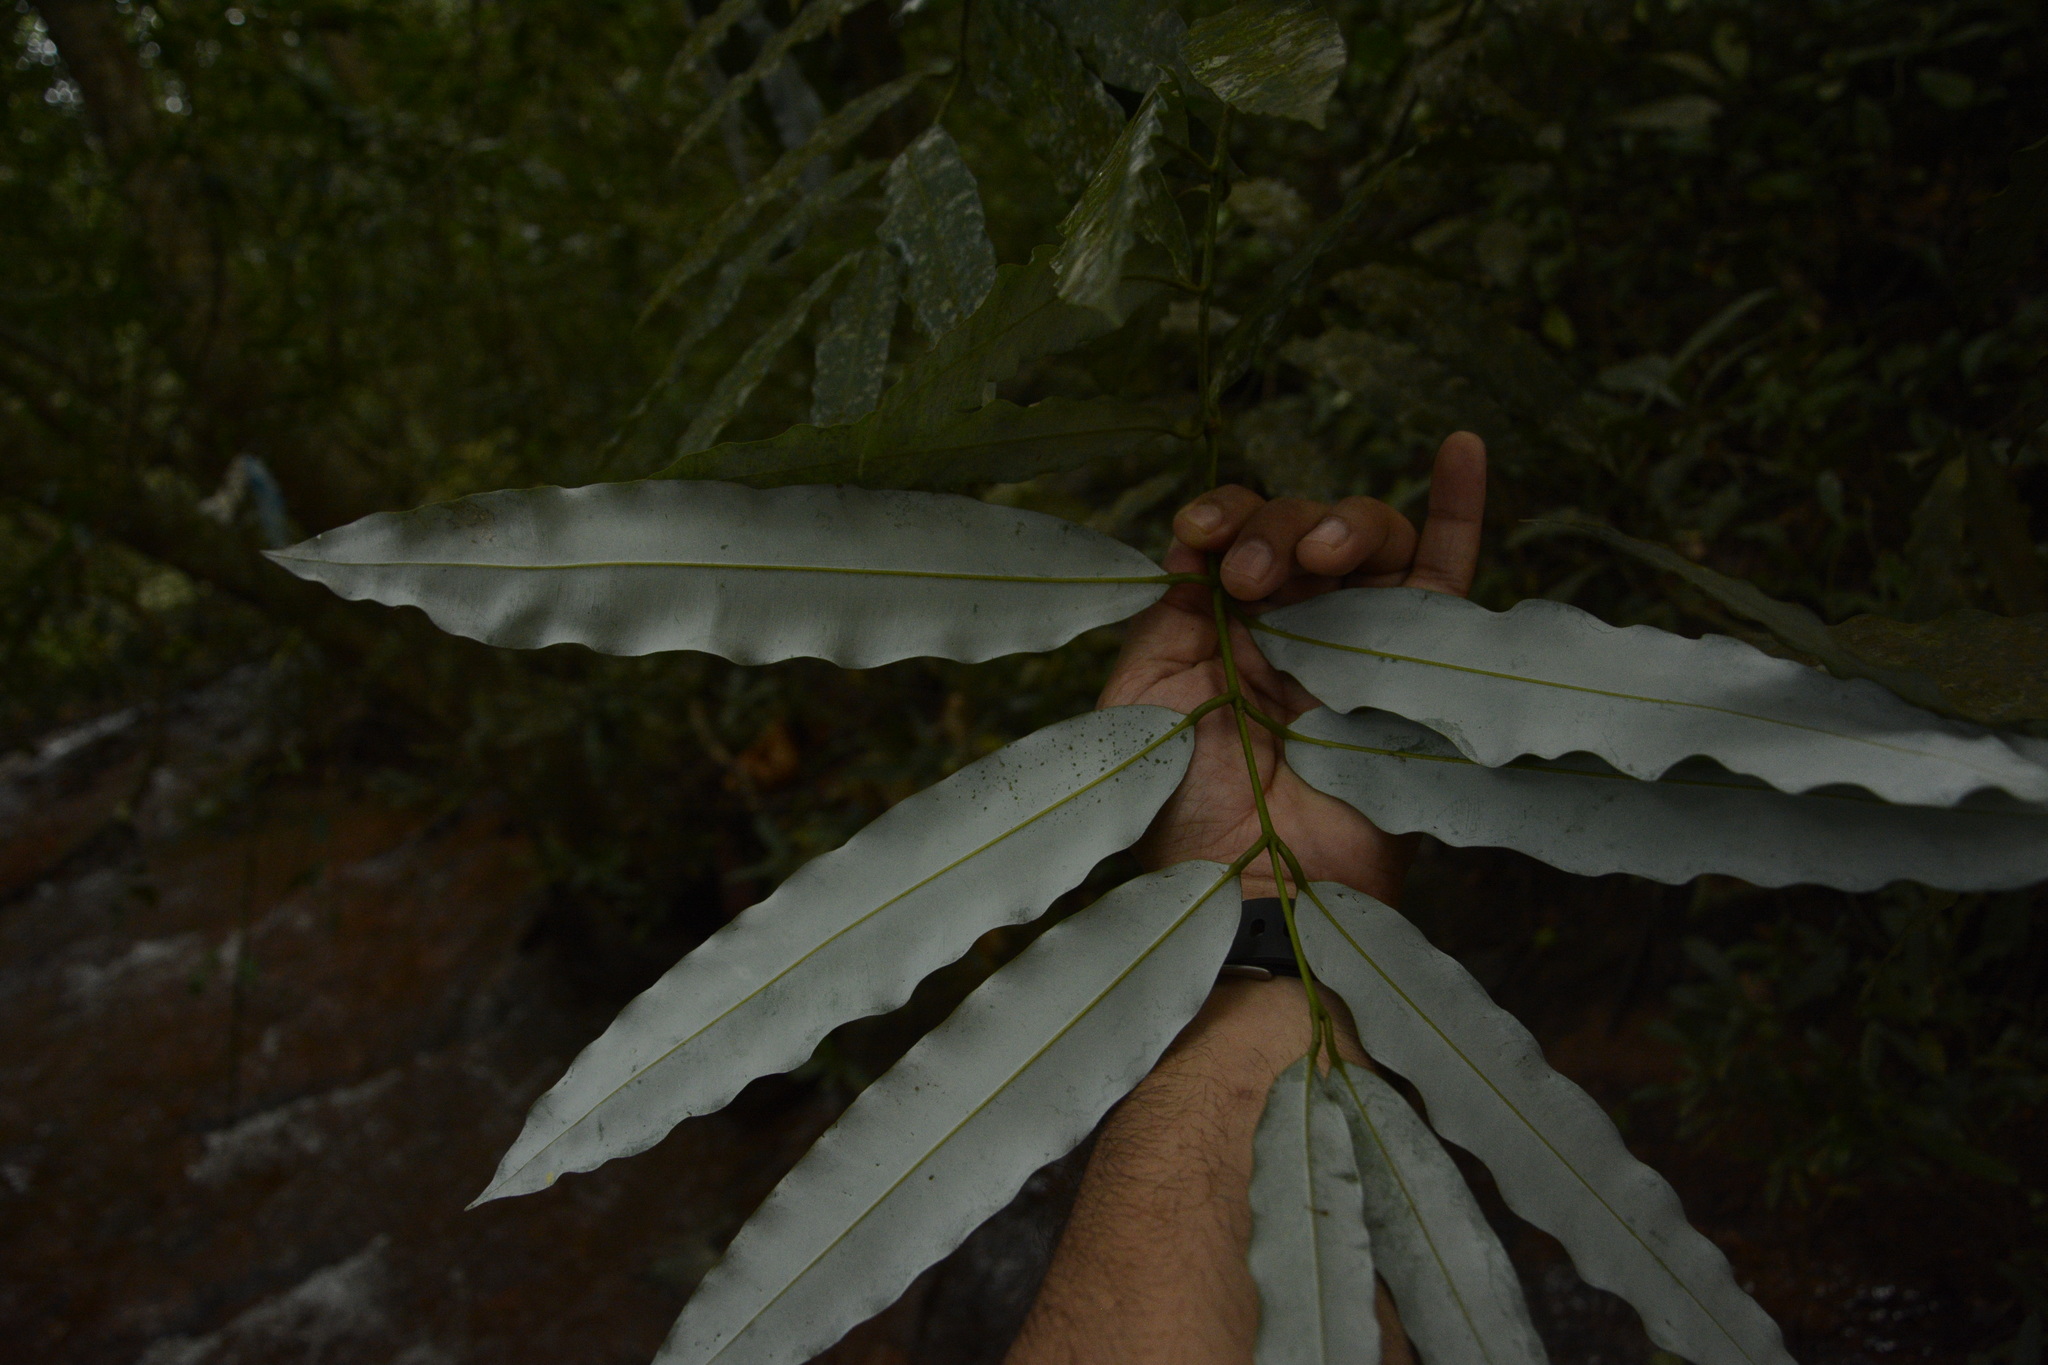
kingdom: Plantae
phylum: Tracheophyta
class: Magnoliopsida
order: Malpighiales
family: Calophyllaceae
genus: Mesua
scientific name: Mesua ferrea
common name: Mesua
